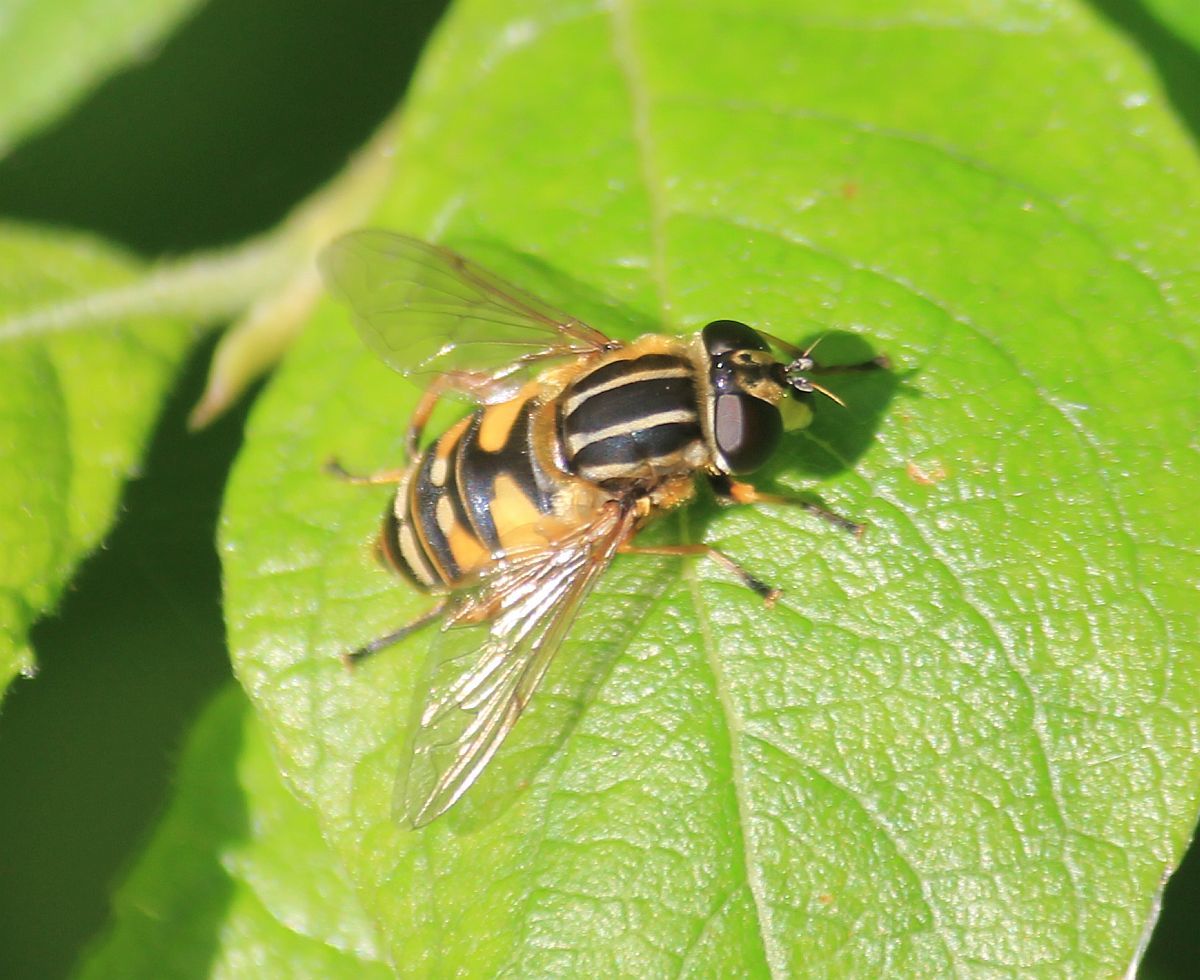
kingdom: Animalia
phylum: Arthropoda
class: Insecta
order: Diptera
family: Syrphidae
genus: Helophilus
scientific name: Helophilus pendulus
